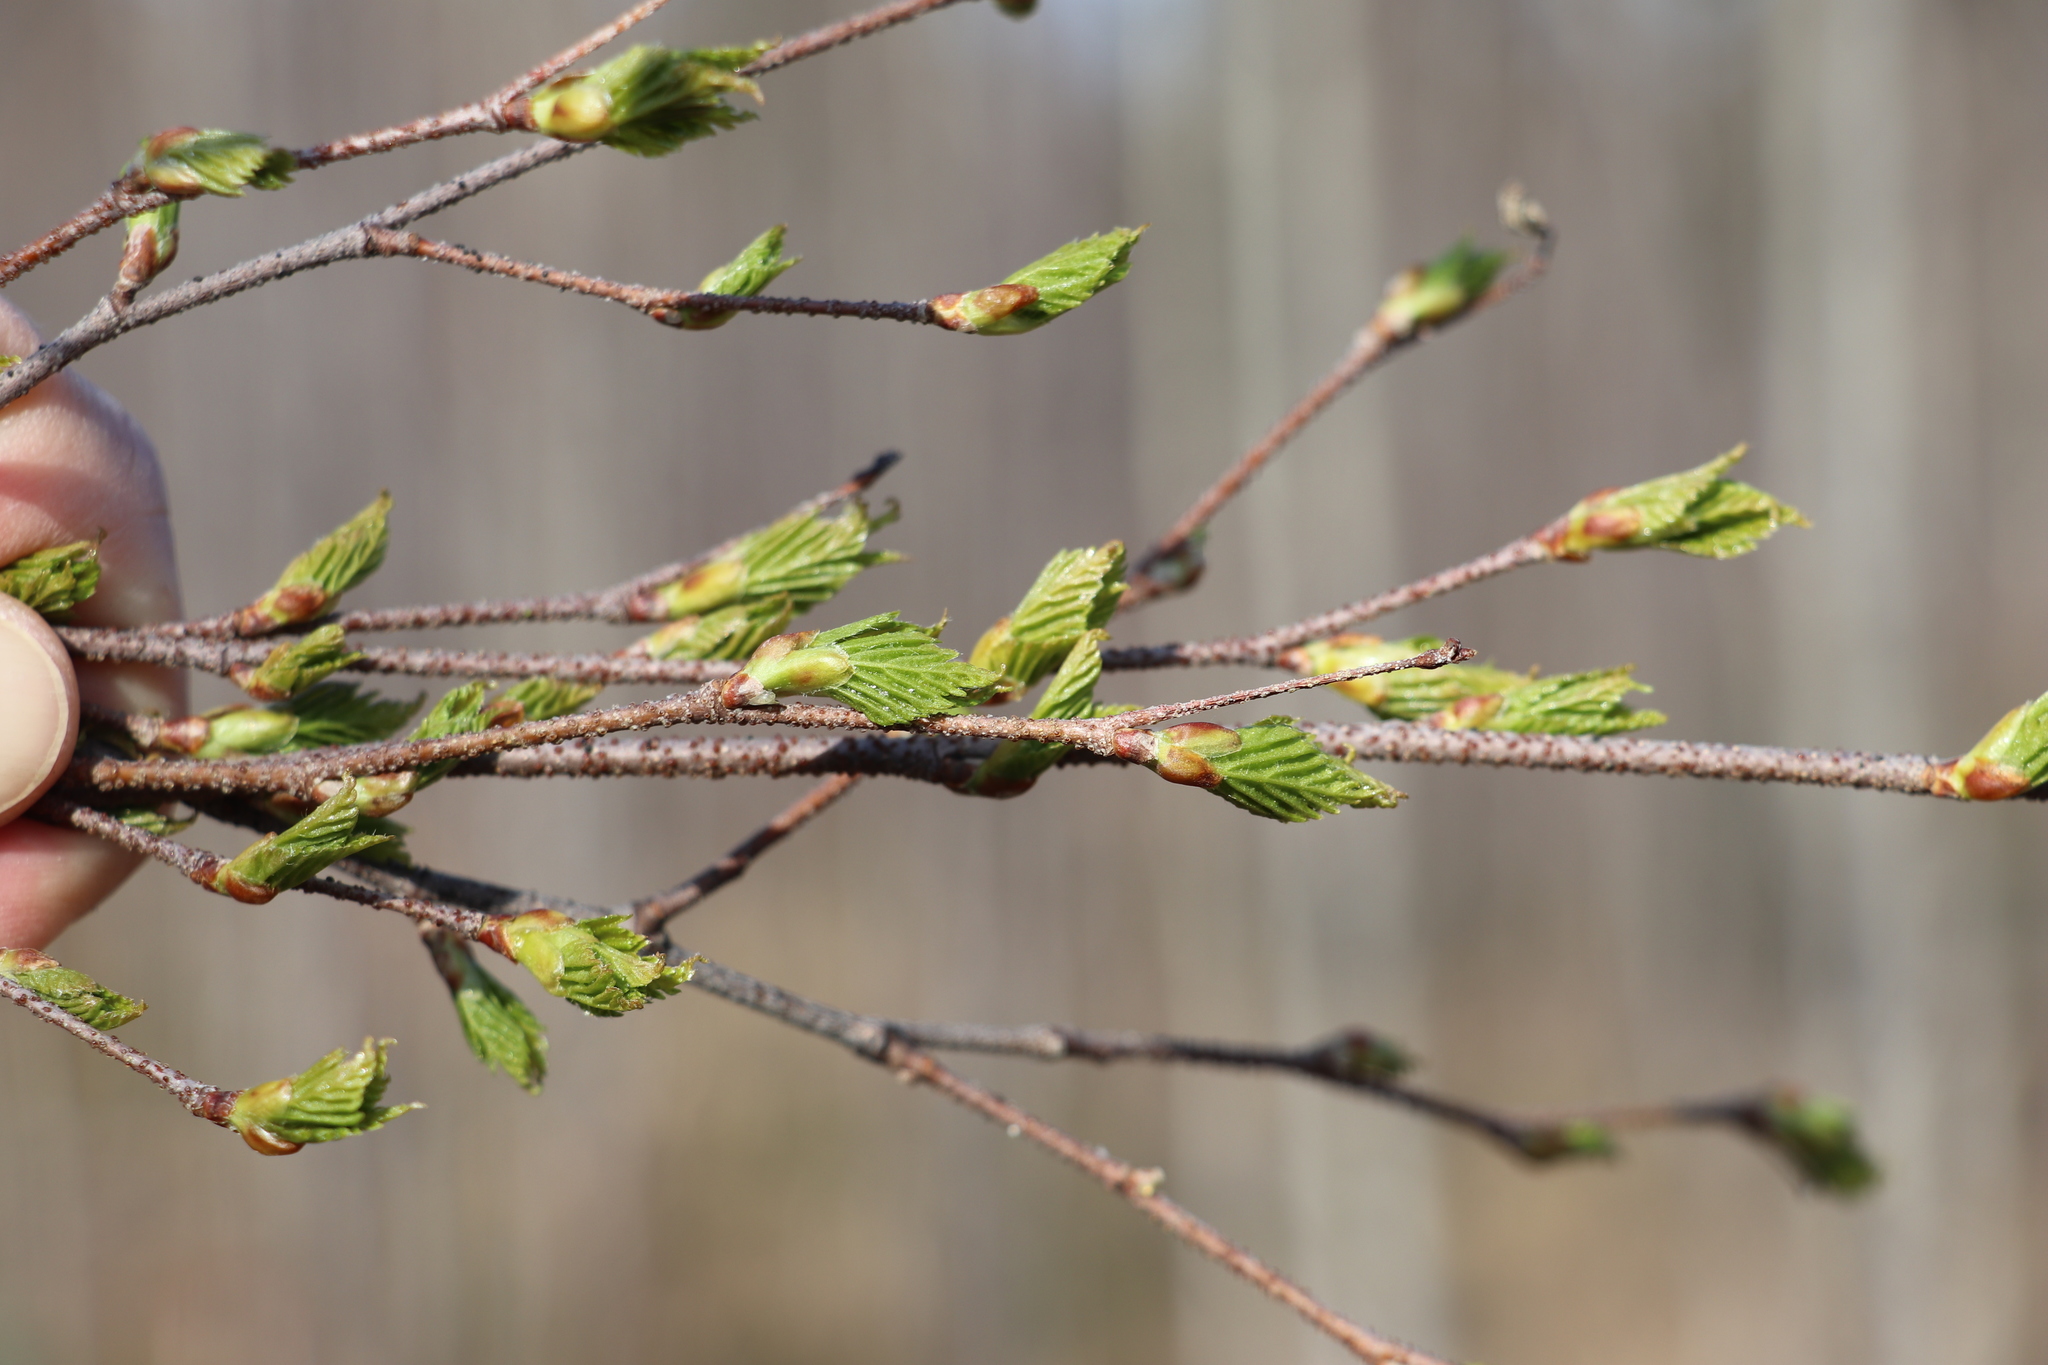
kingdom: Plantae
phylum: Tracheophyta
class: Magnoliopsida
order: Fagales
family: Betulaceae
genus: Betula
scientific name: Betula pendula
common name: Silver birch
